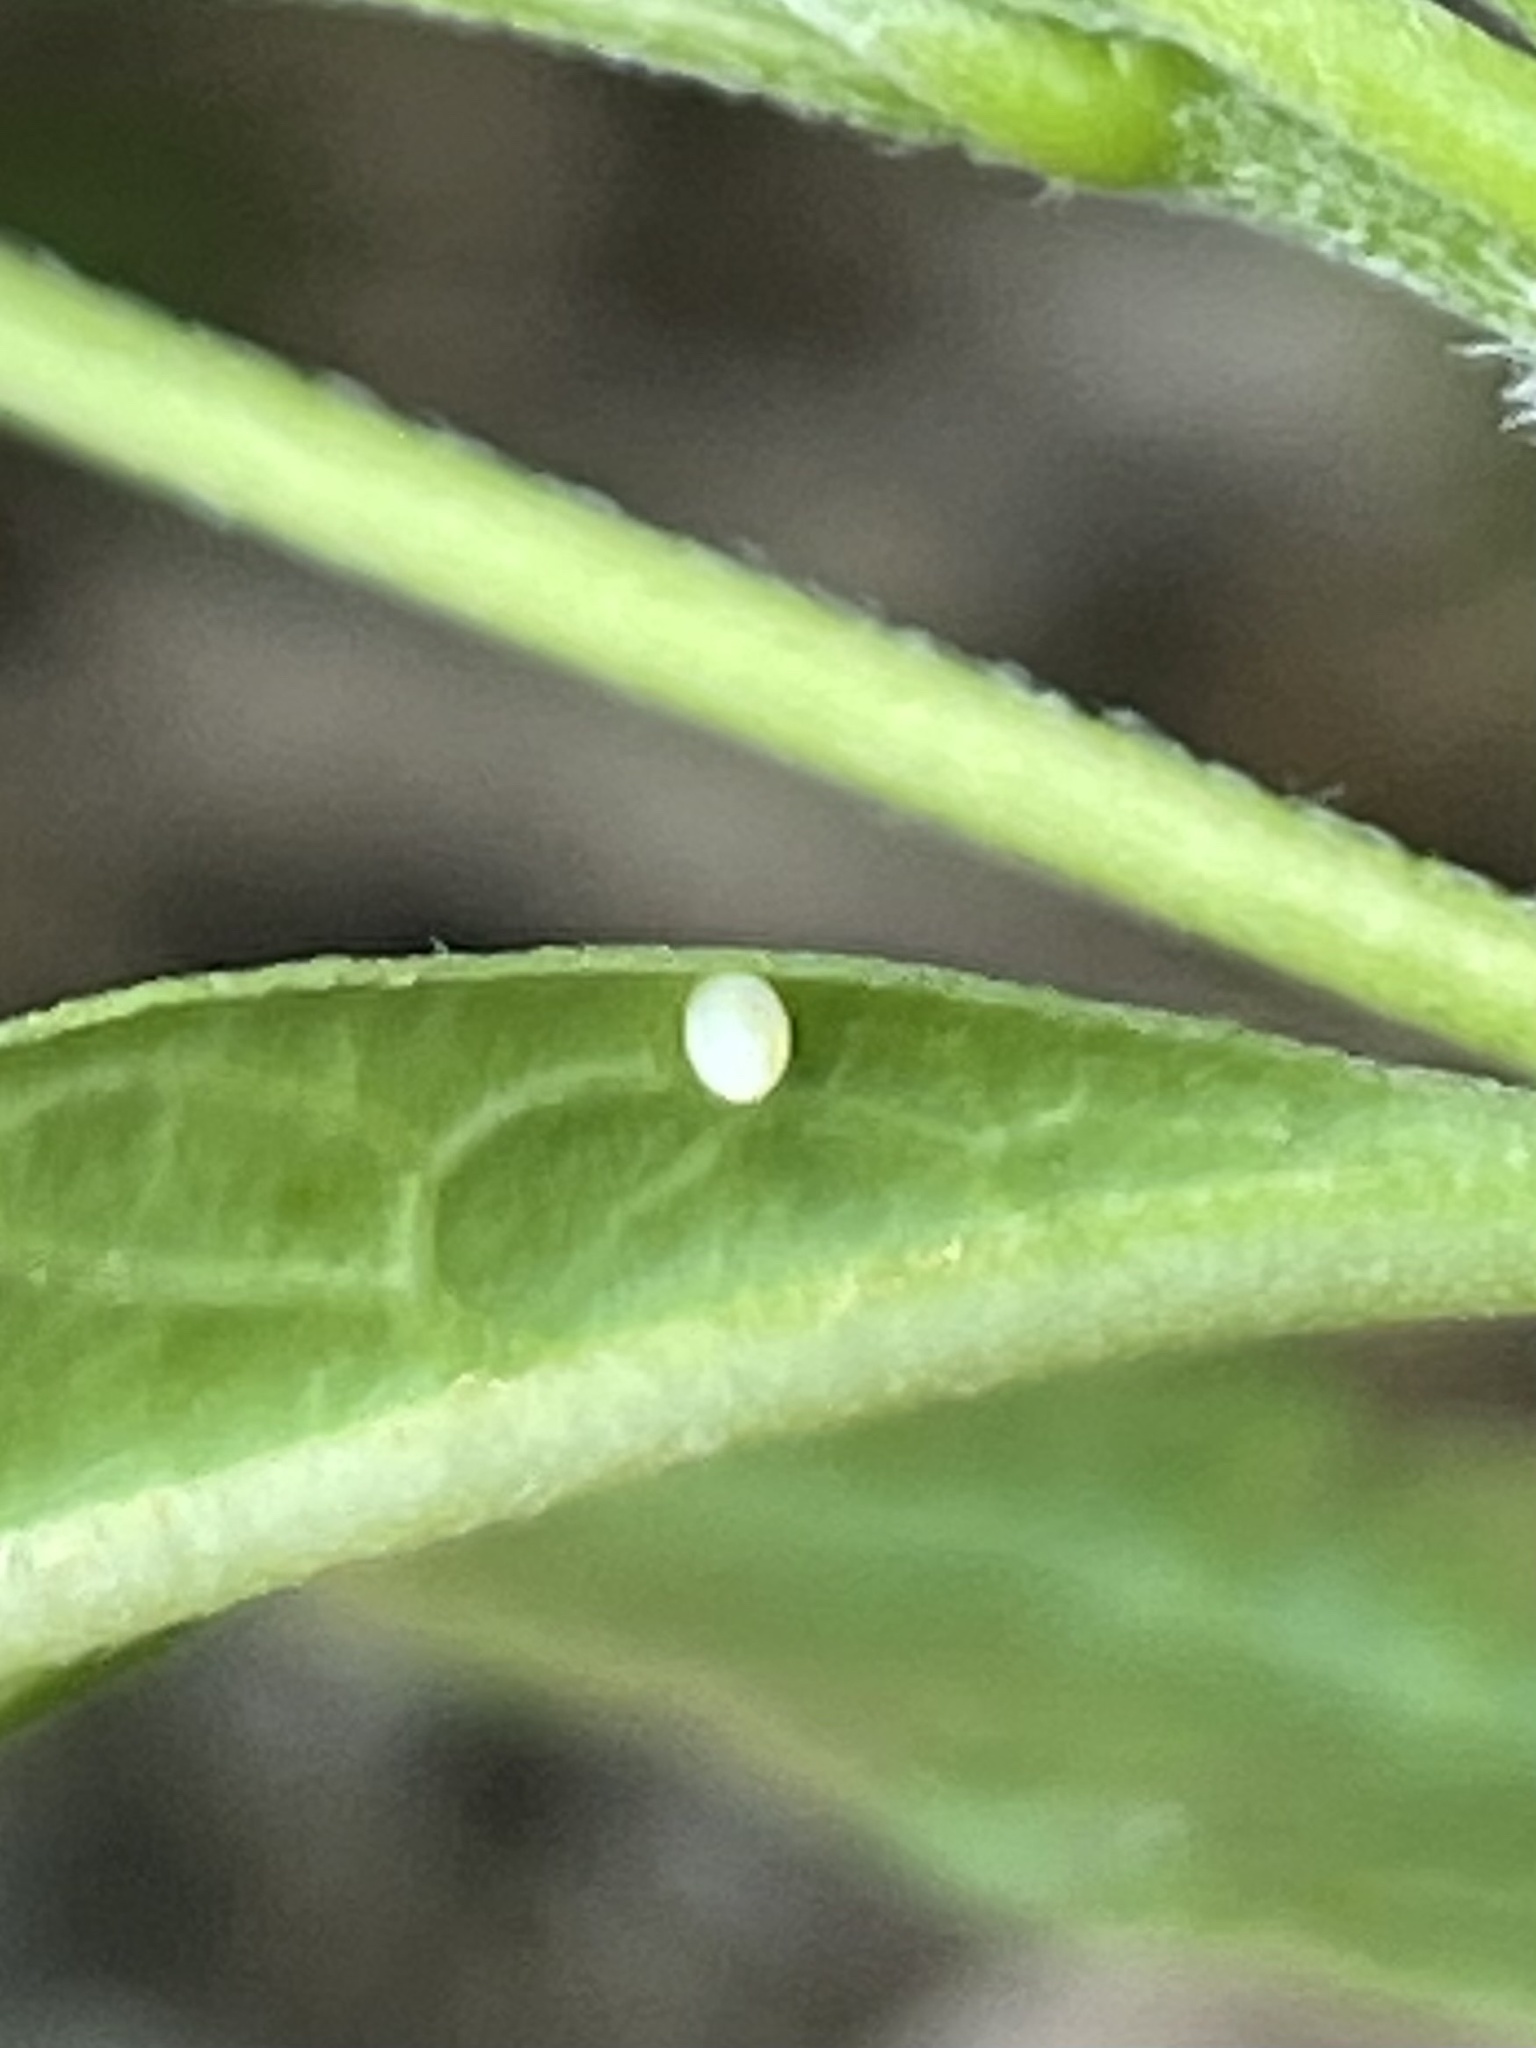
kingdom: Animalia
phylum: Arthropoda
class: Insecta
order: Lepidoptera
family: Nymphalidae
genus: Danaus
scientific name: Danaus plexippus
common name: Monarch
